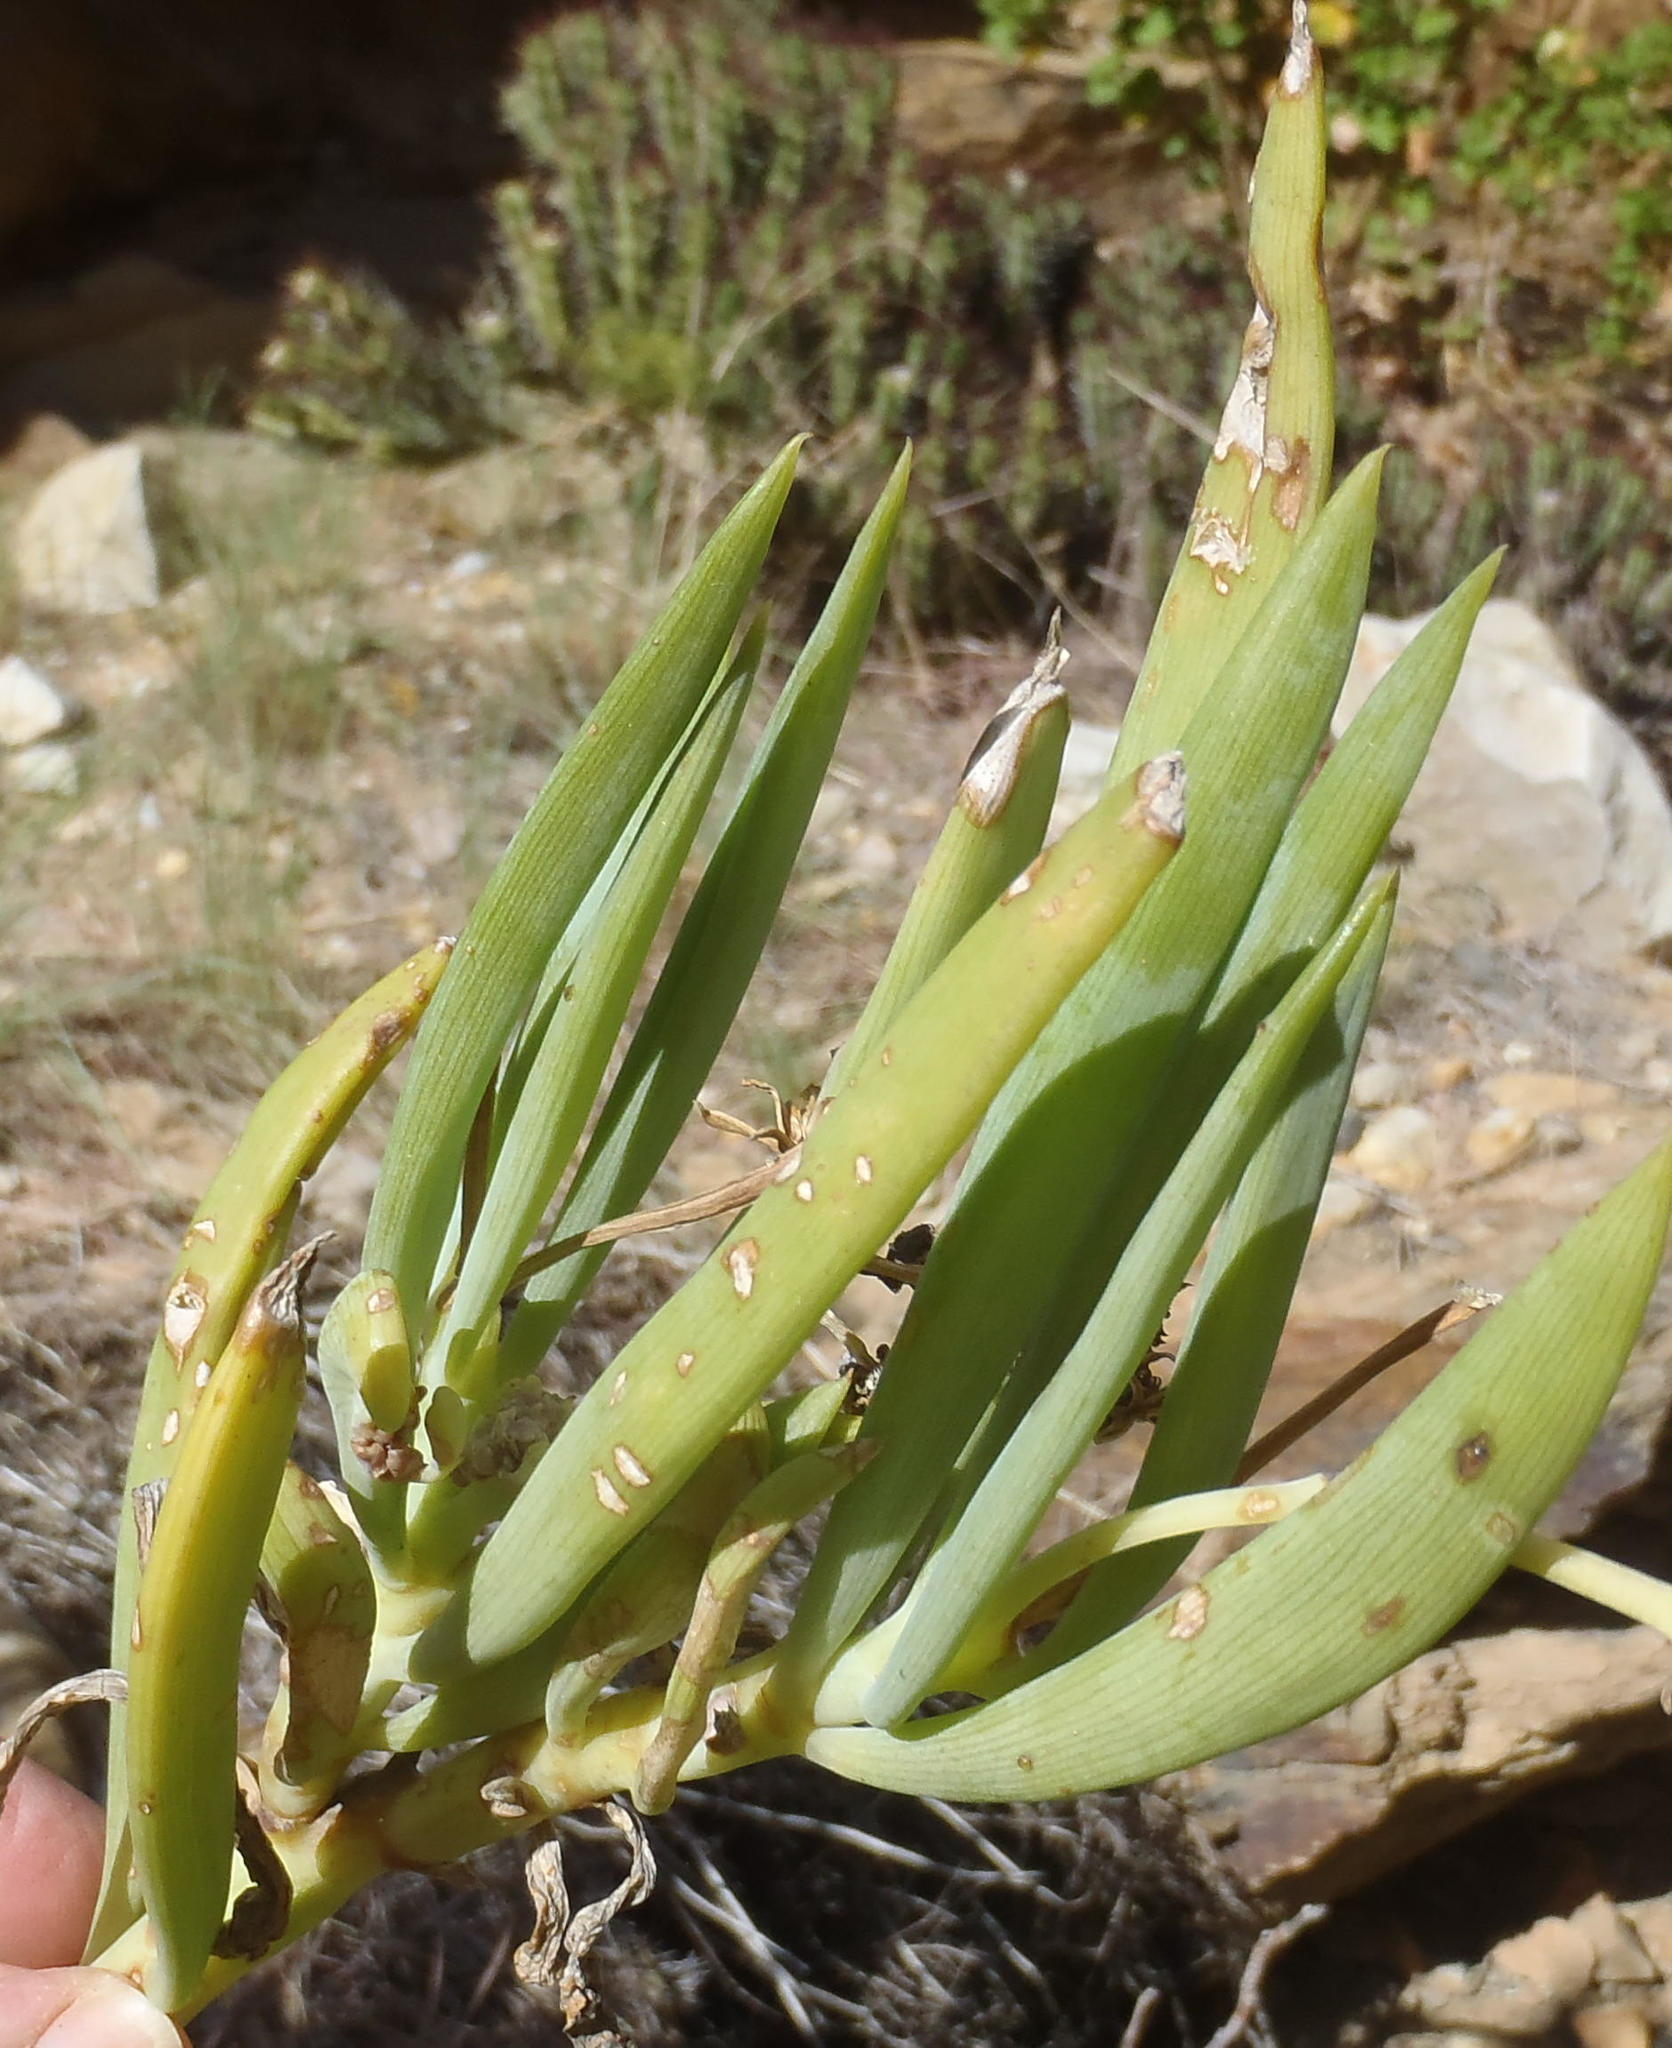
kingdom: Plantae
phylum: Tracheophyta
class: Magnoliopsida
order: Asterales
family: Asteraceae
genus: Curio
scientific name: Curio ficoides
